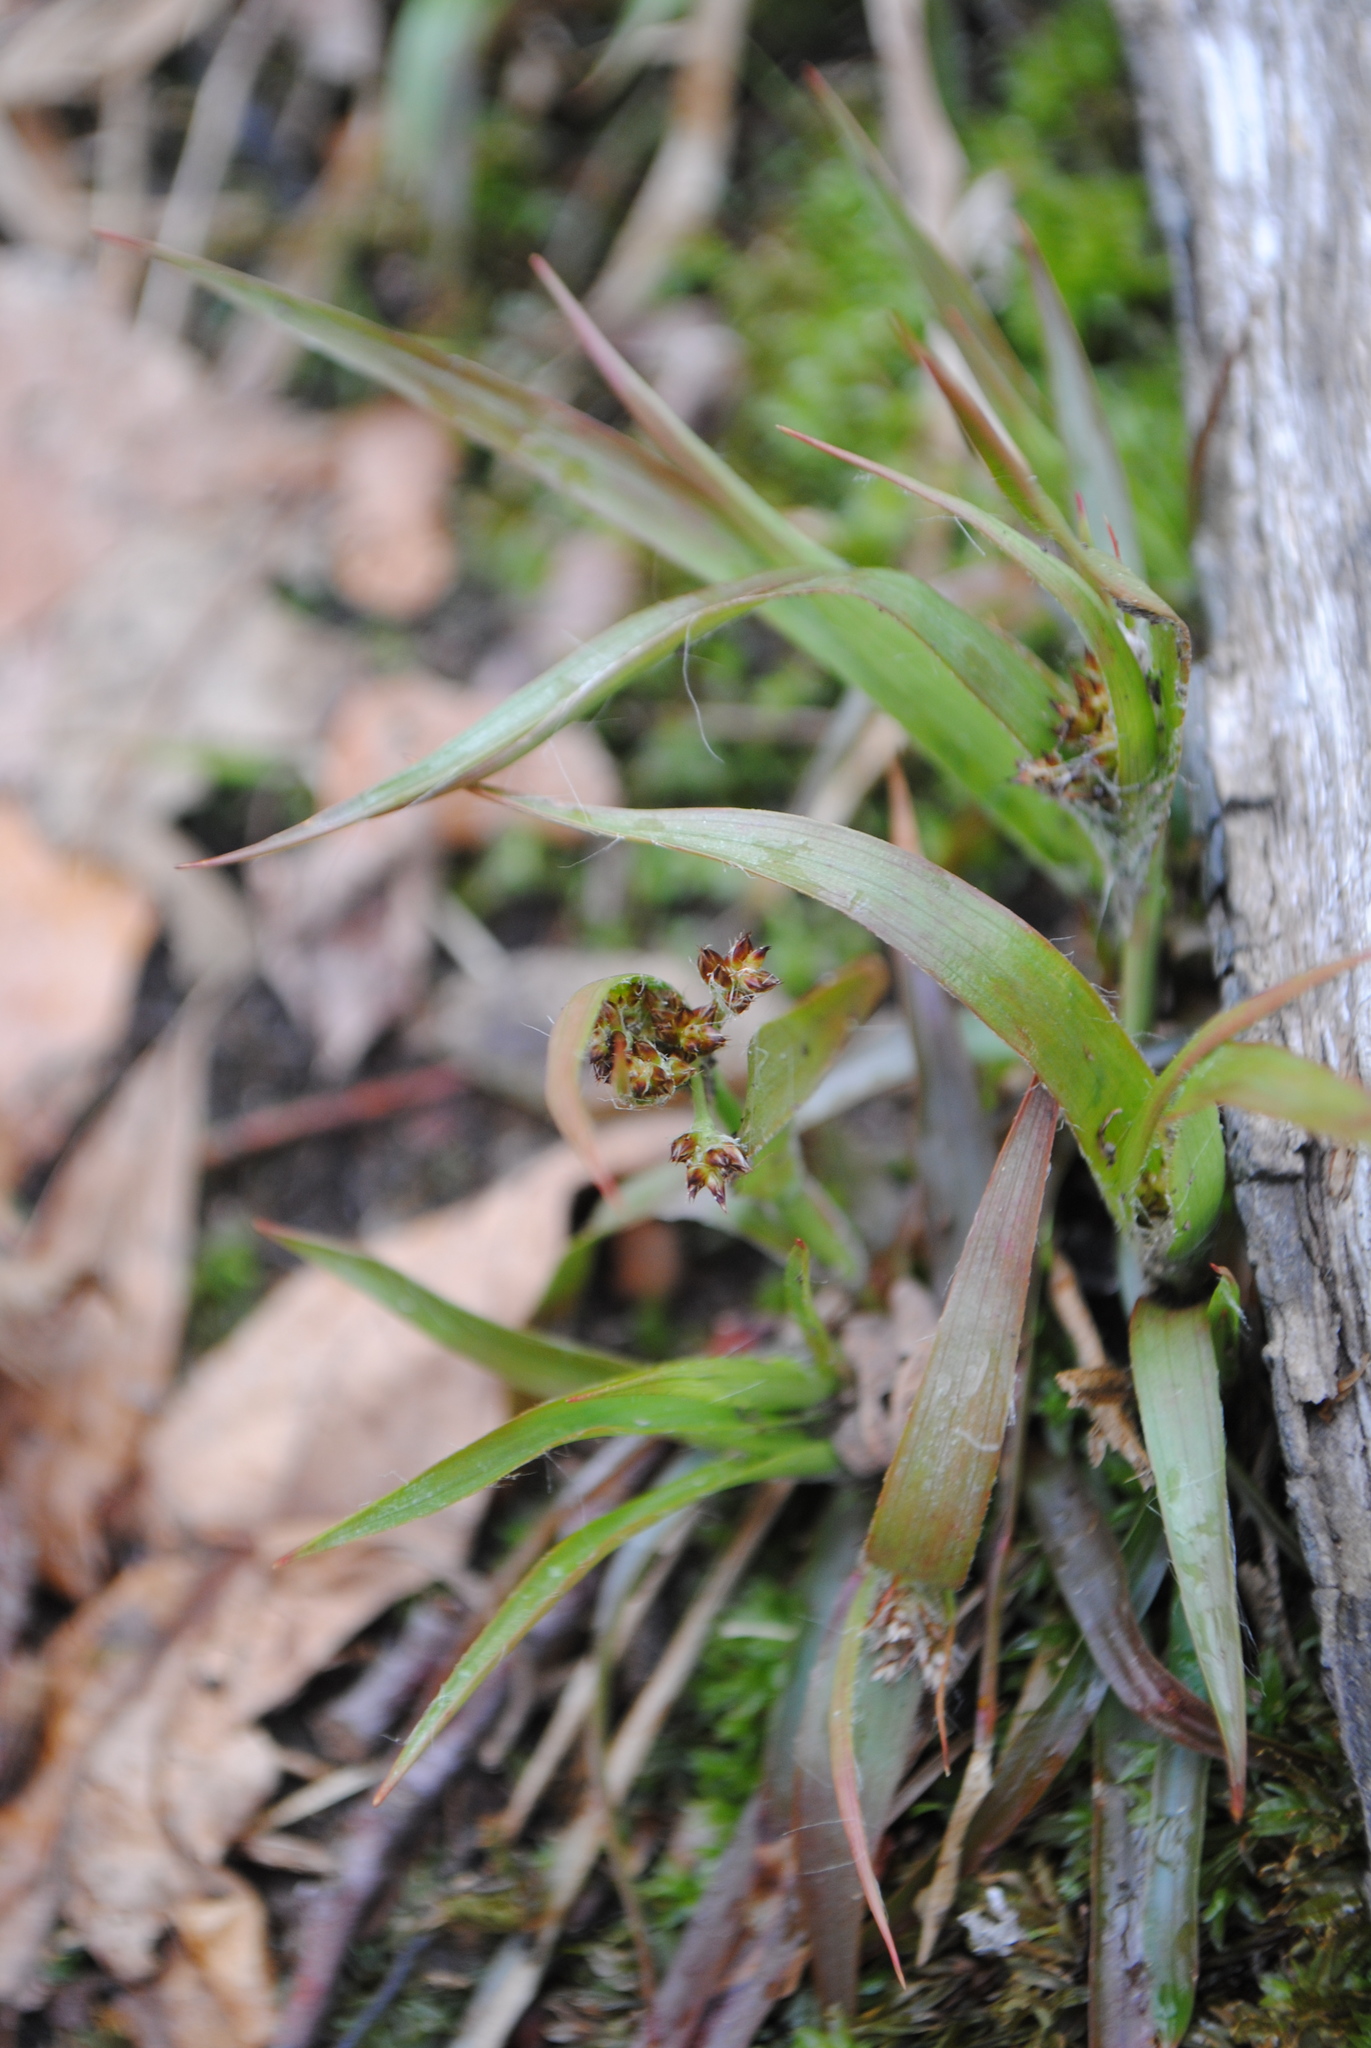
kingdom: Plantae
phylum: Tracheophyta
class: Liliopsida
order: Poales
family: Juncaceae
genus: Luzula
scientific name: Luzula multiflora
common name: Heath wood-rush
